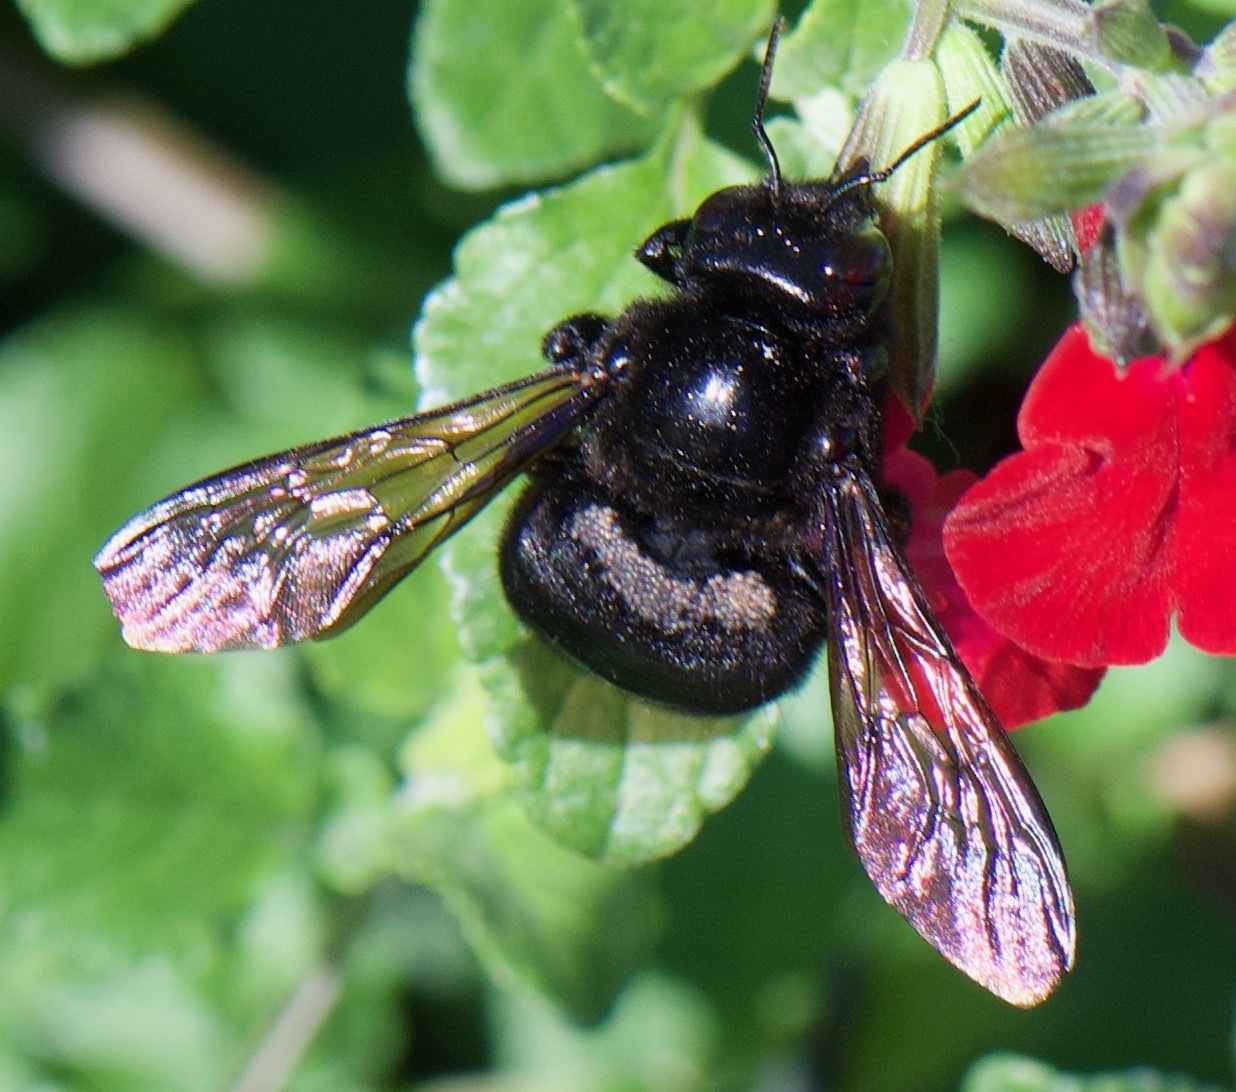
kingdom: Animalia
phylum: Arthropoda
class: Insecta
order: Hymenoptera
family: Apidae
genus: Xylocopa
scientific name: Xylocopa sonorina
